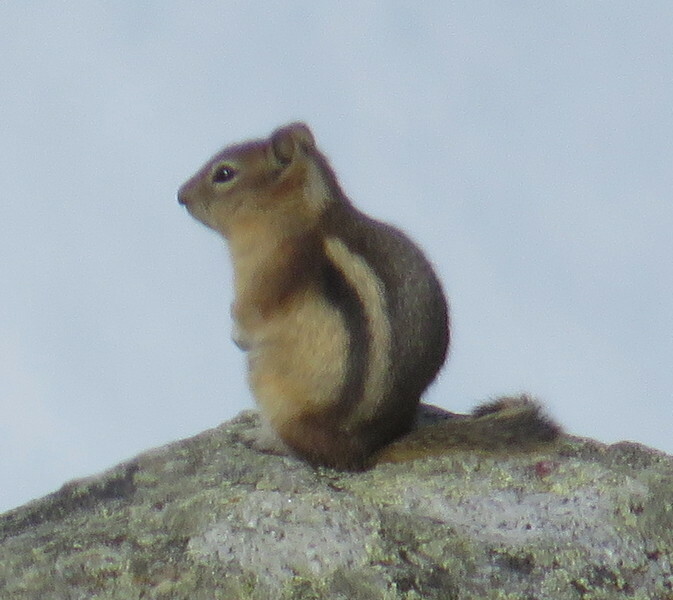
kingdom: Animalia
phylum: Chordata
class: Mammalia
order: Rodentia
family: Sciuridae
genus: Callospermophilus
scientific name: Callospermophilus lateralis
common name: Golden-mantled ground squirrel
